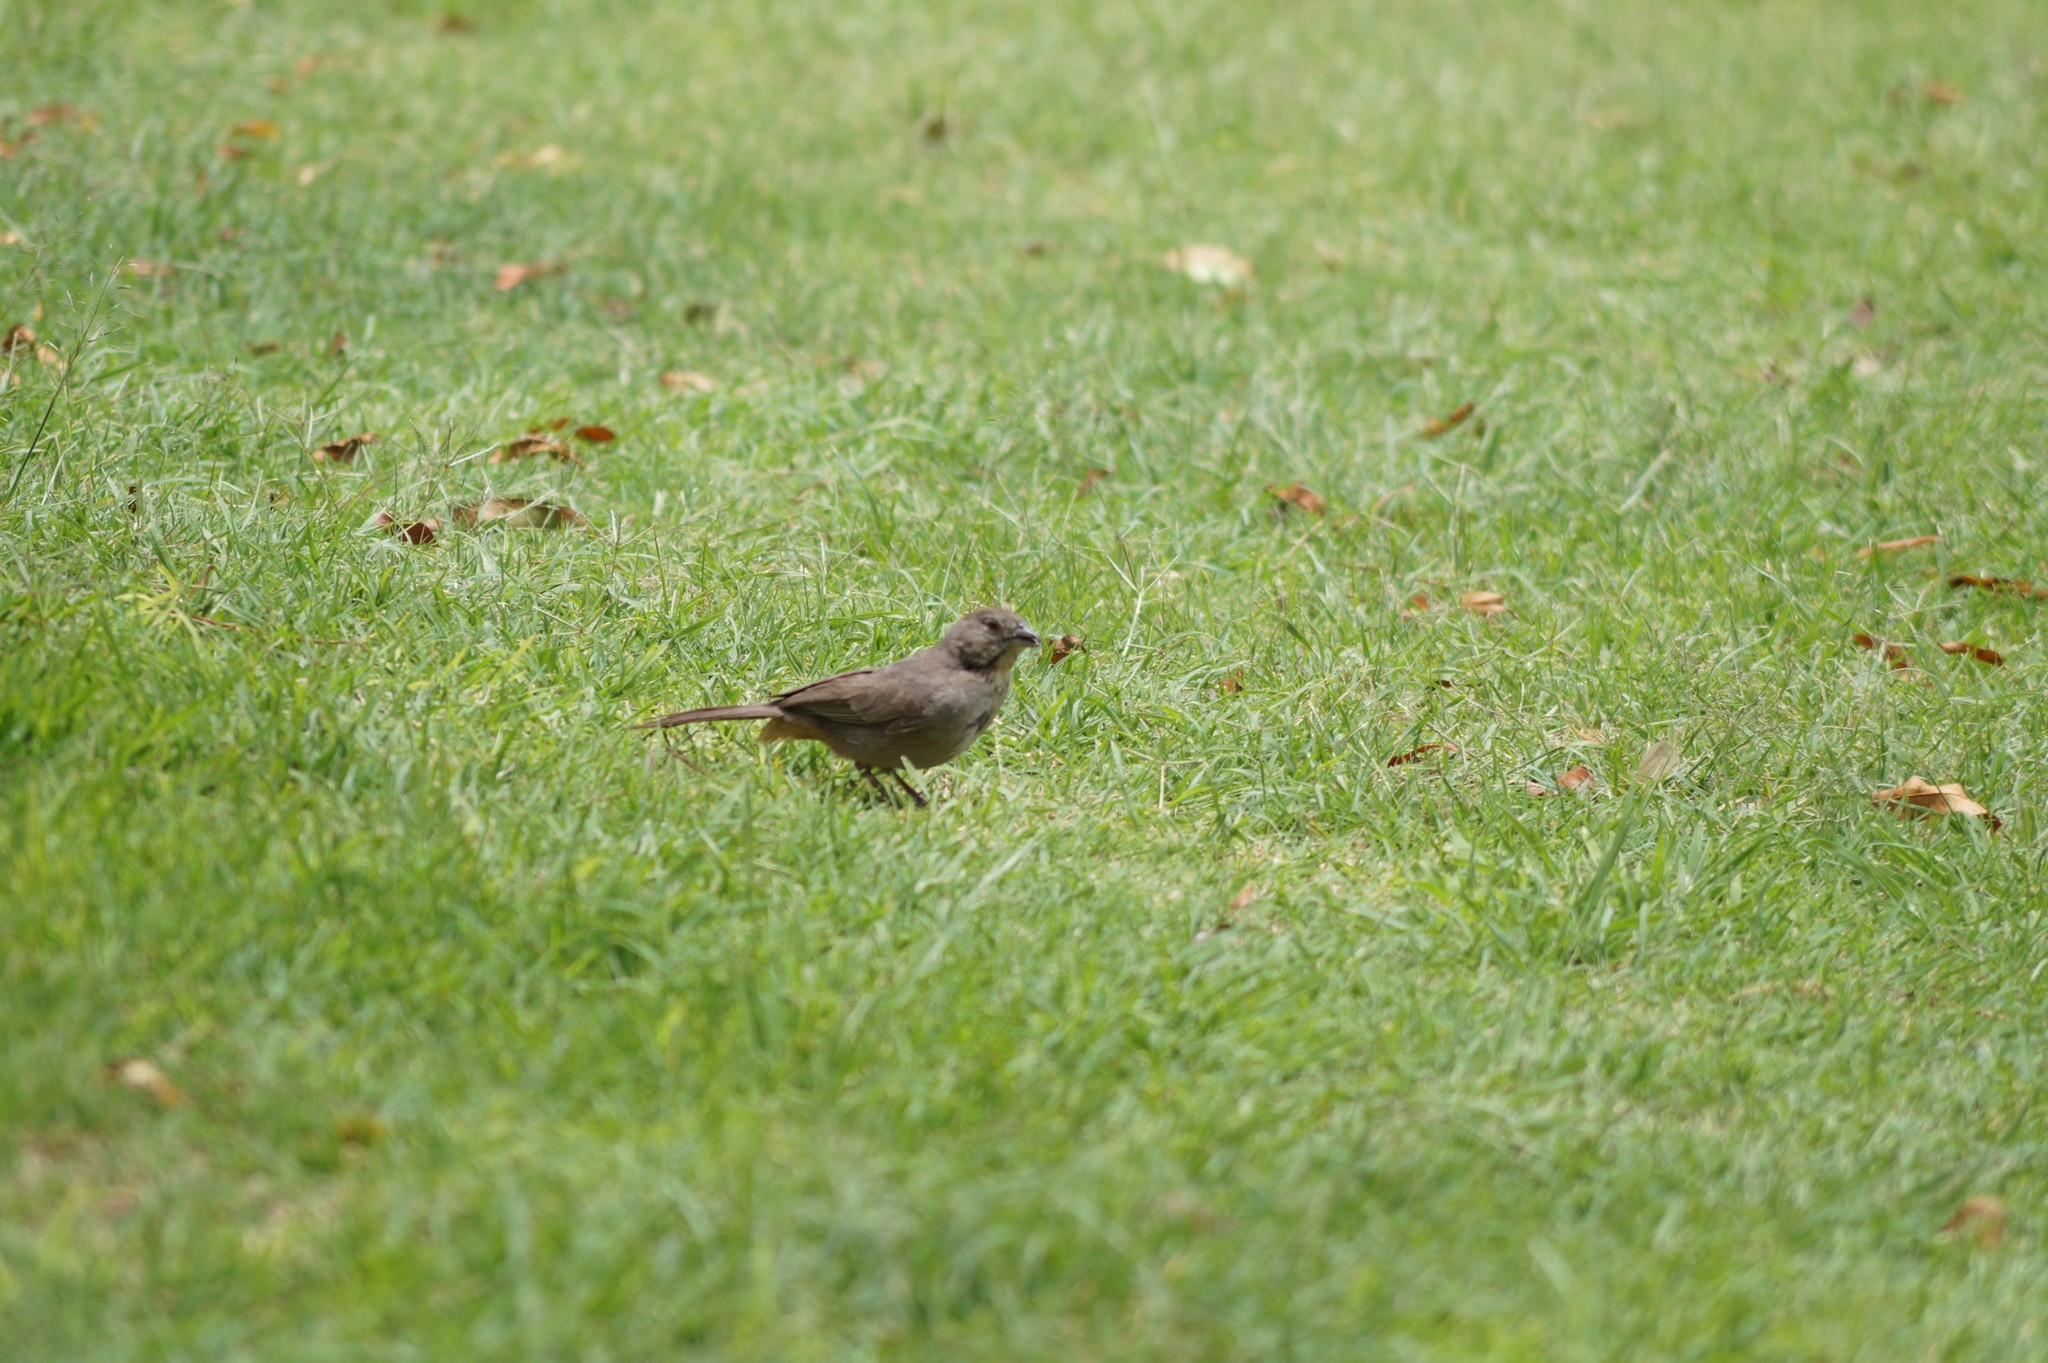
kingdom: Animalia
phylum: Chordata
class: Aves
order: Passeriformes
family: Passerellidae
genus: Melozone
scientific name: Melozone fusca
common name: Canyon towhee
